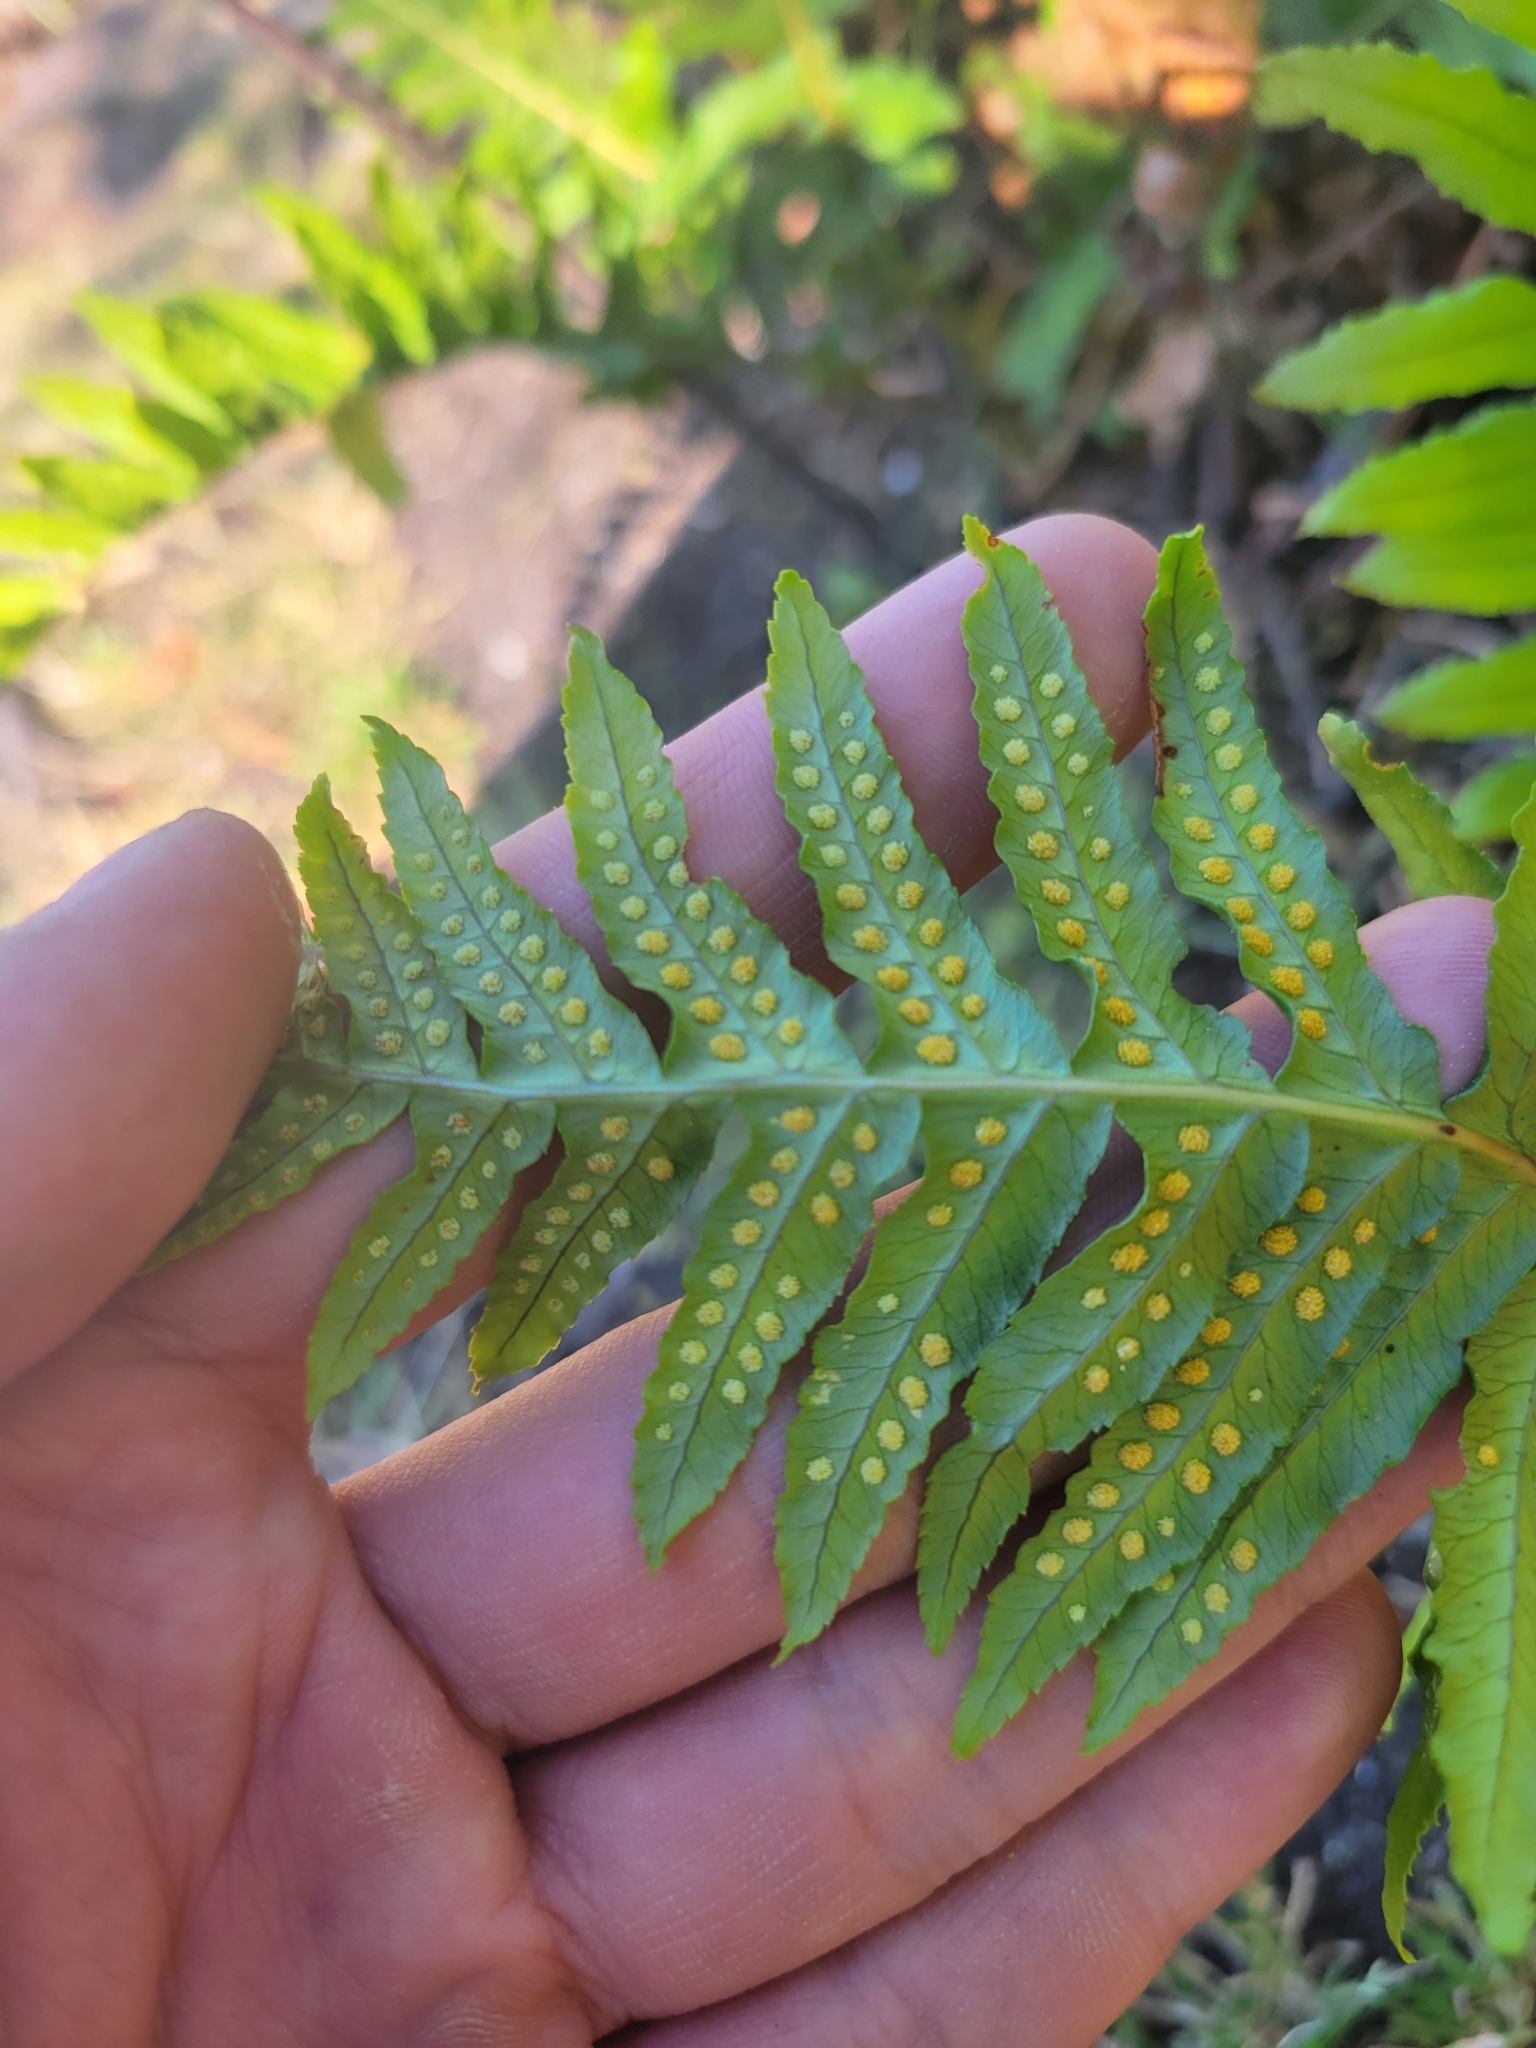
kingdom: Plantae
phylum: Tracheophyta
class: Polypodiopsida
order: Polypodiales
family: Polypodiaceae
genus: Polypodium
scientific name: Polypodium glycyrrhiza
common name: Licorice fern
